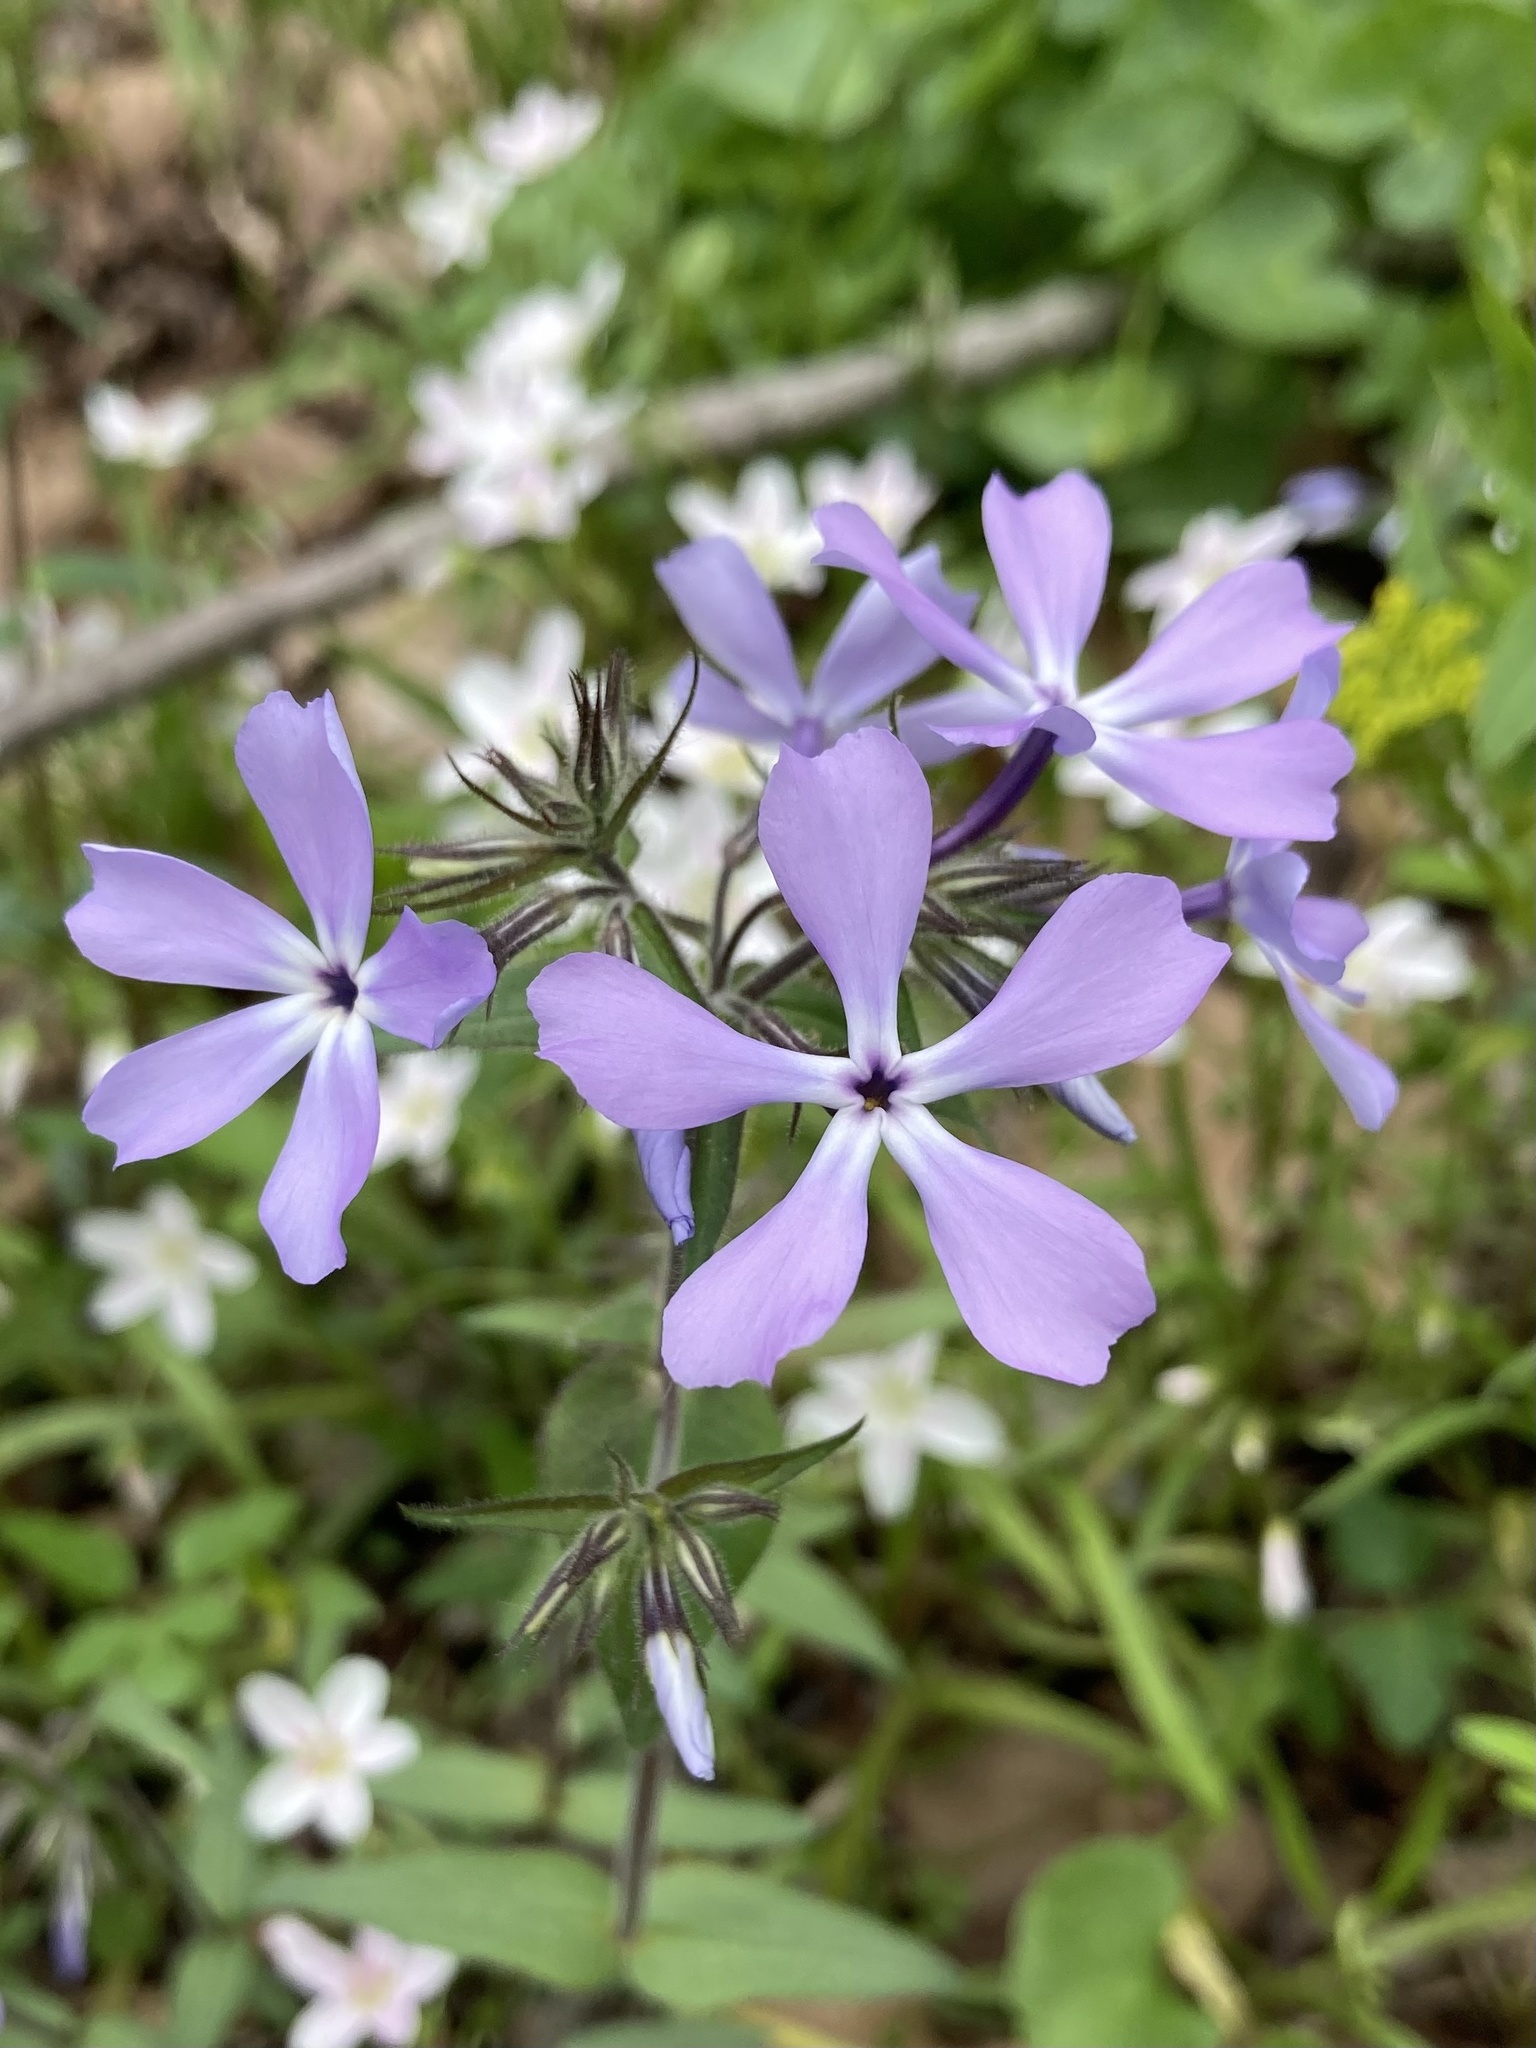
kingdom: Plantae
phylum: Tracheophyta
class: Magnoliopsida
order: Ericales
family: Polemoniaceae
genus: Phlox
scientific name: Phlox divaricata
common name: Blue phlox
